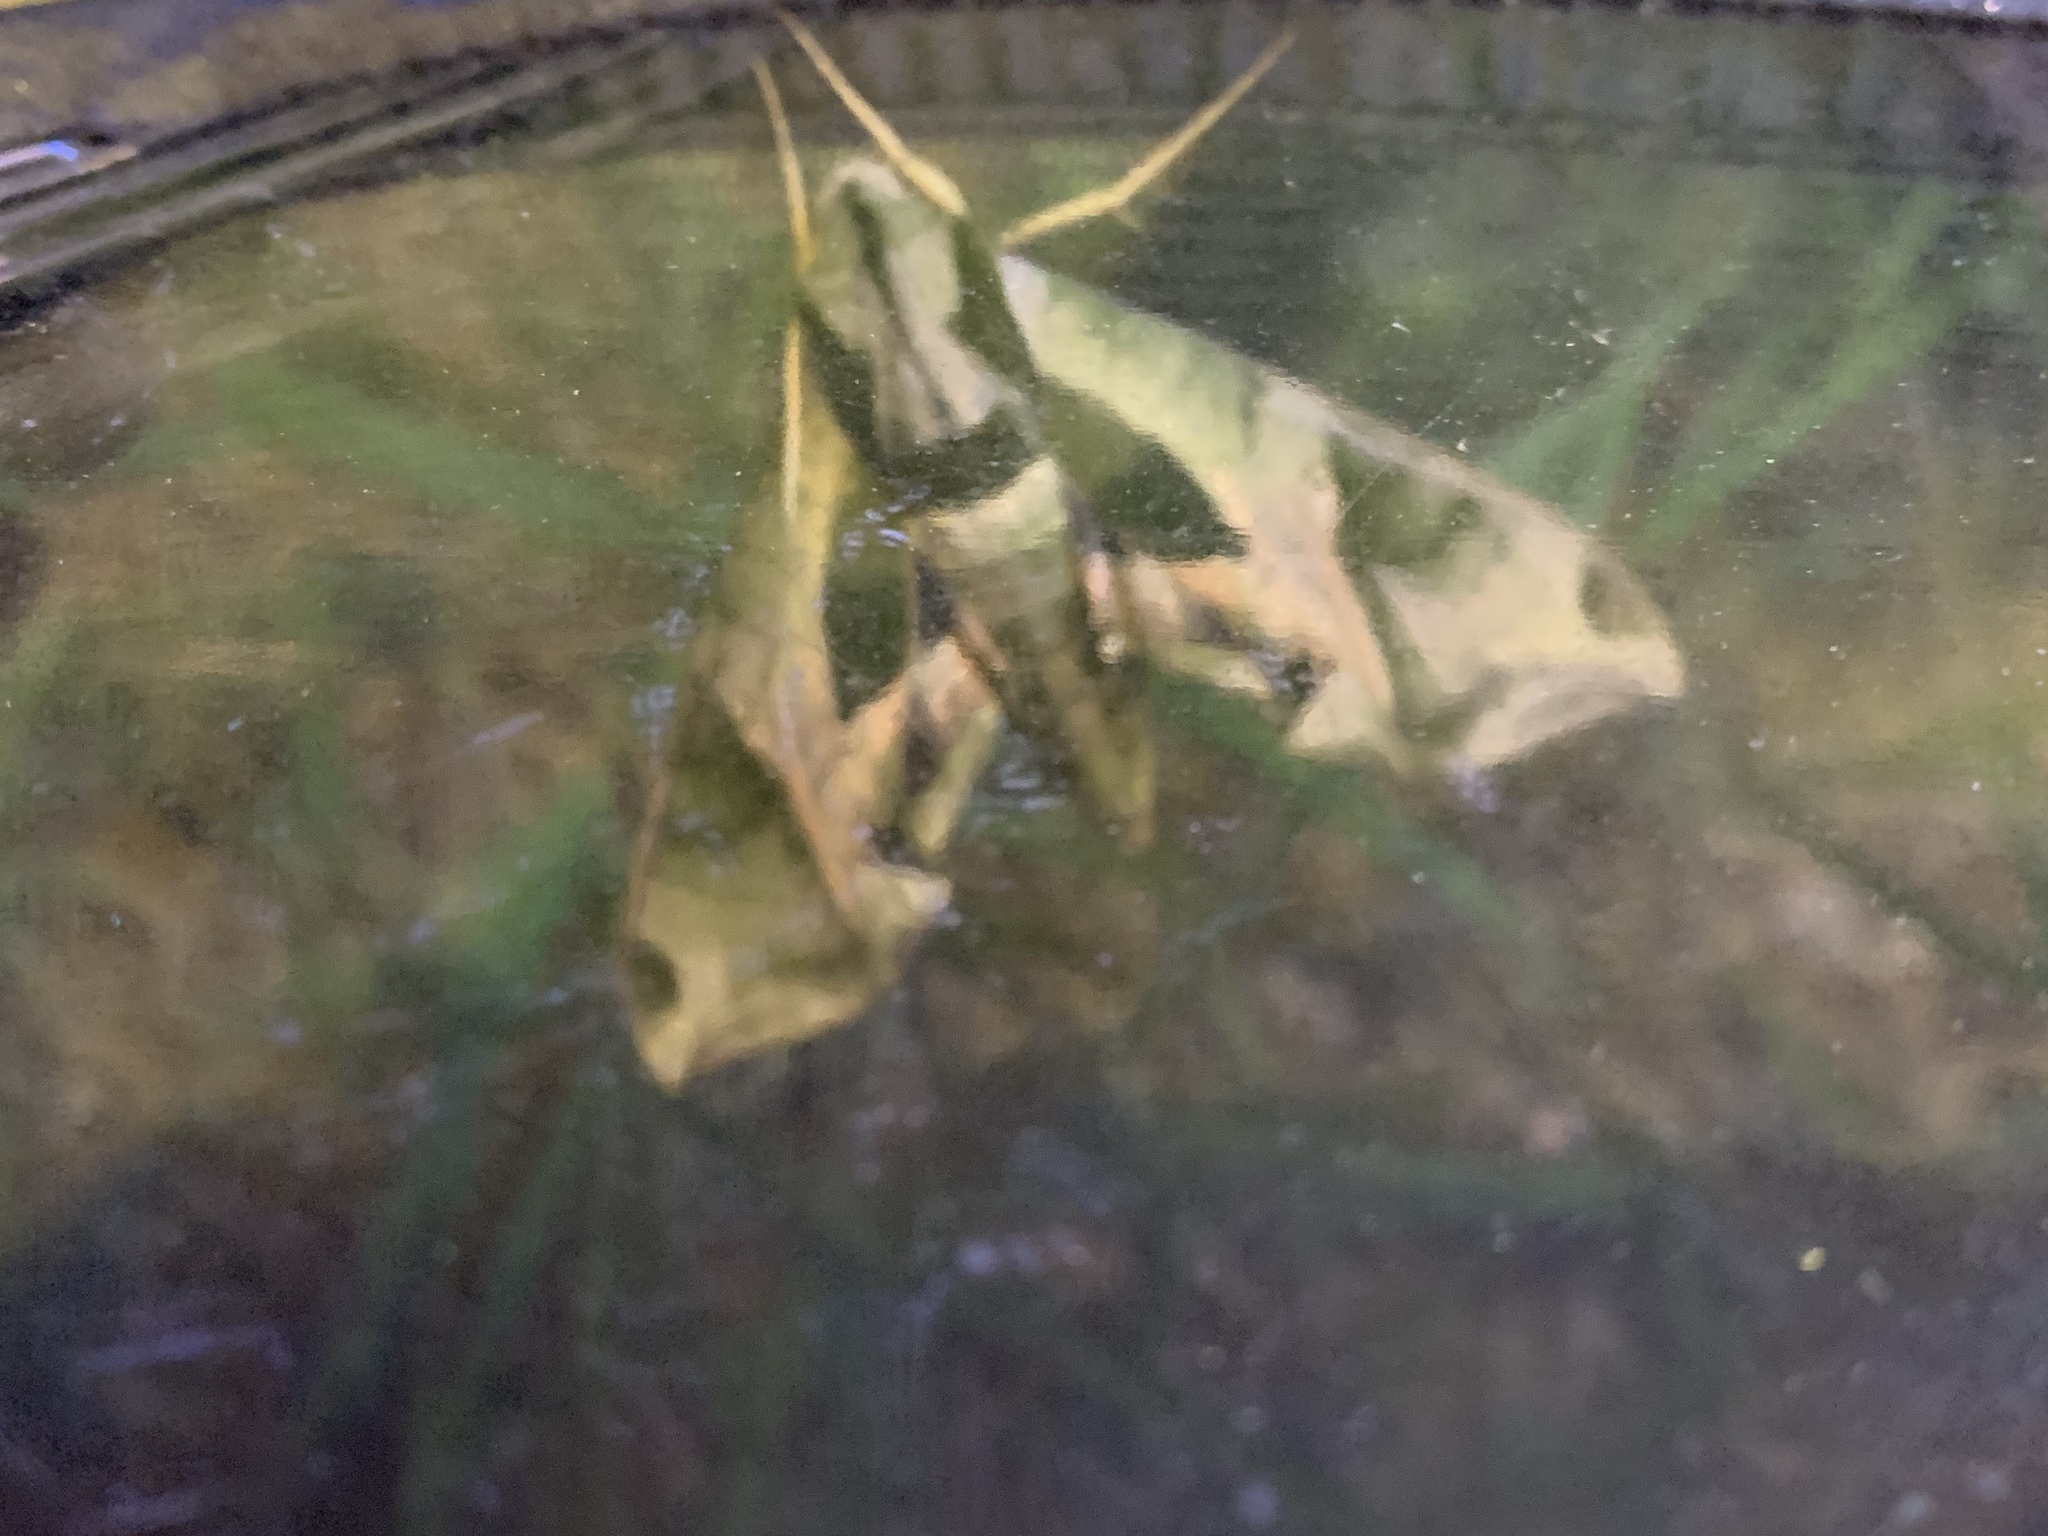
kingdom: Animalia
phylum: Arthropoda
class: Insecta
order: Lepidoptera
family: Sphingidae
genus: Eumorpha
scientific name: Eumorpha pandorus
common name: Pandora sphinx
